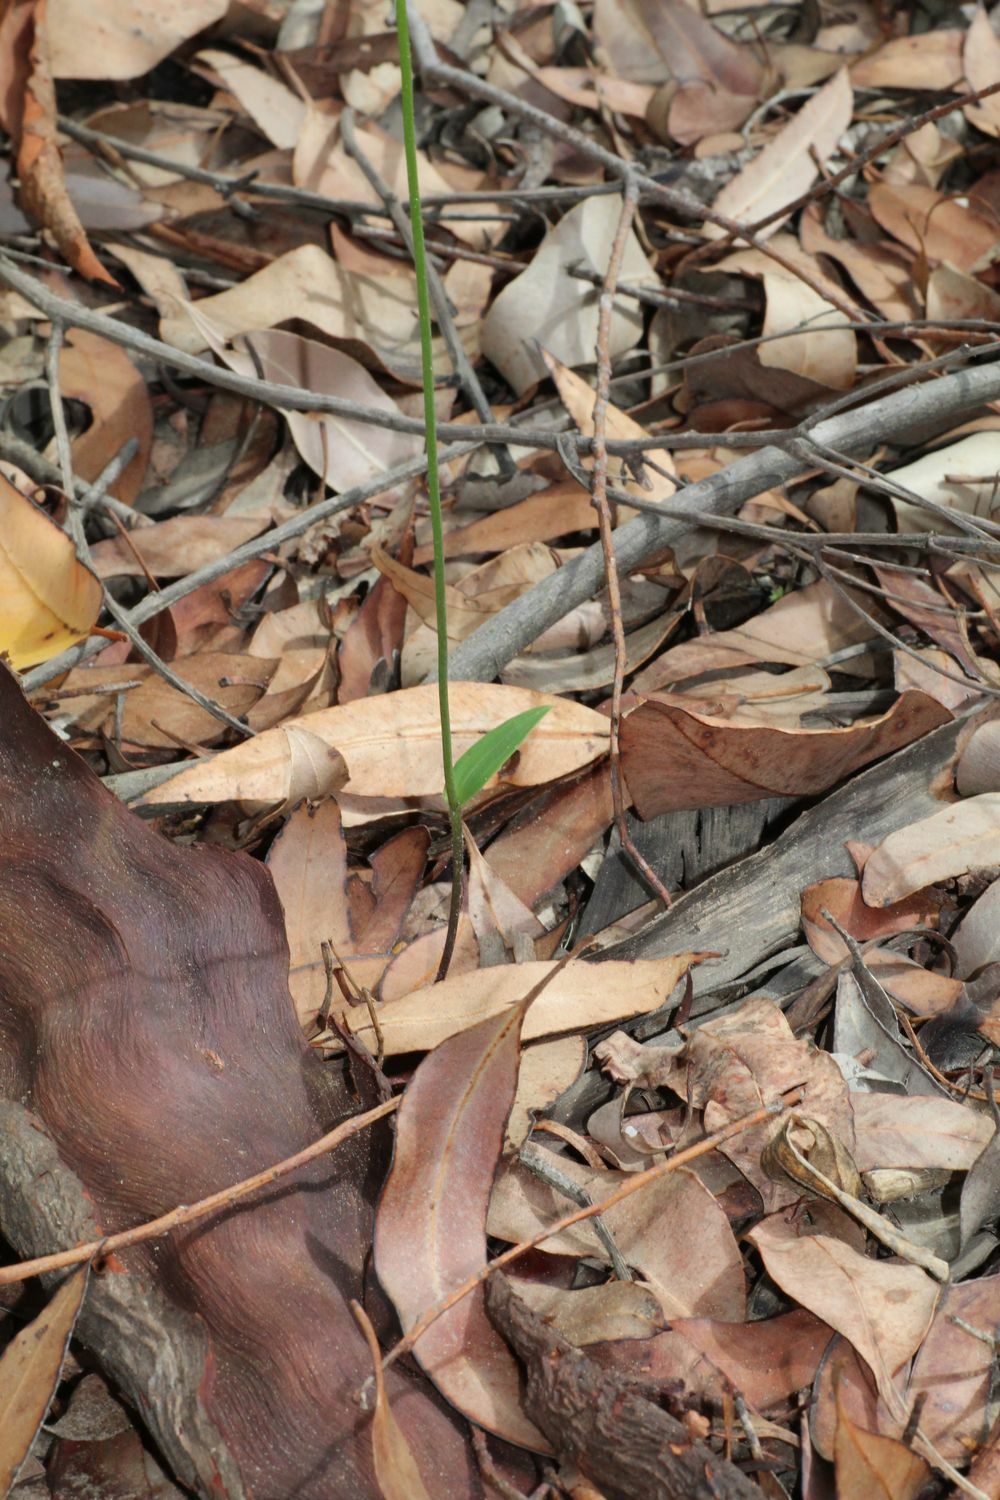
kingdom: Plantae
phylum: Tracheophyta
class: Liliopsida
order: Asparagales
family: Orchidaceae
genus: Eriochilus
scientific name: Eriochilus dilatatus
